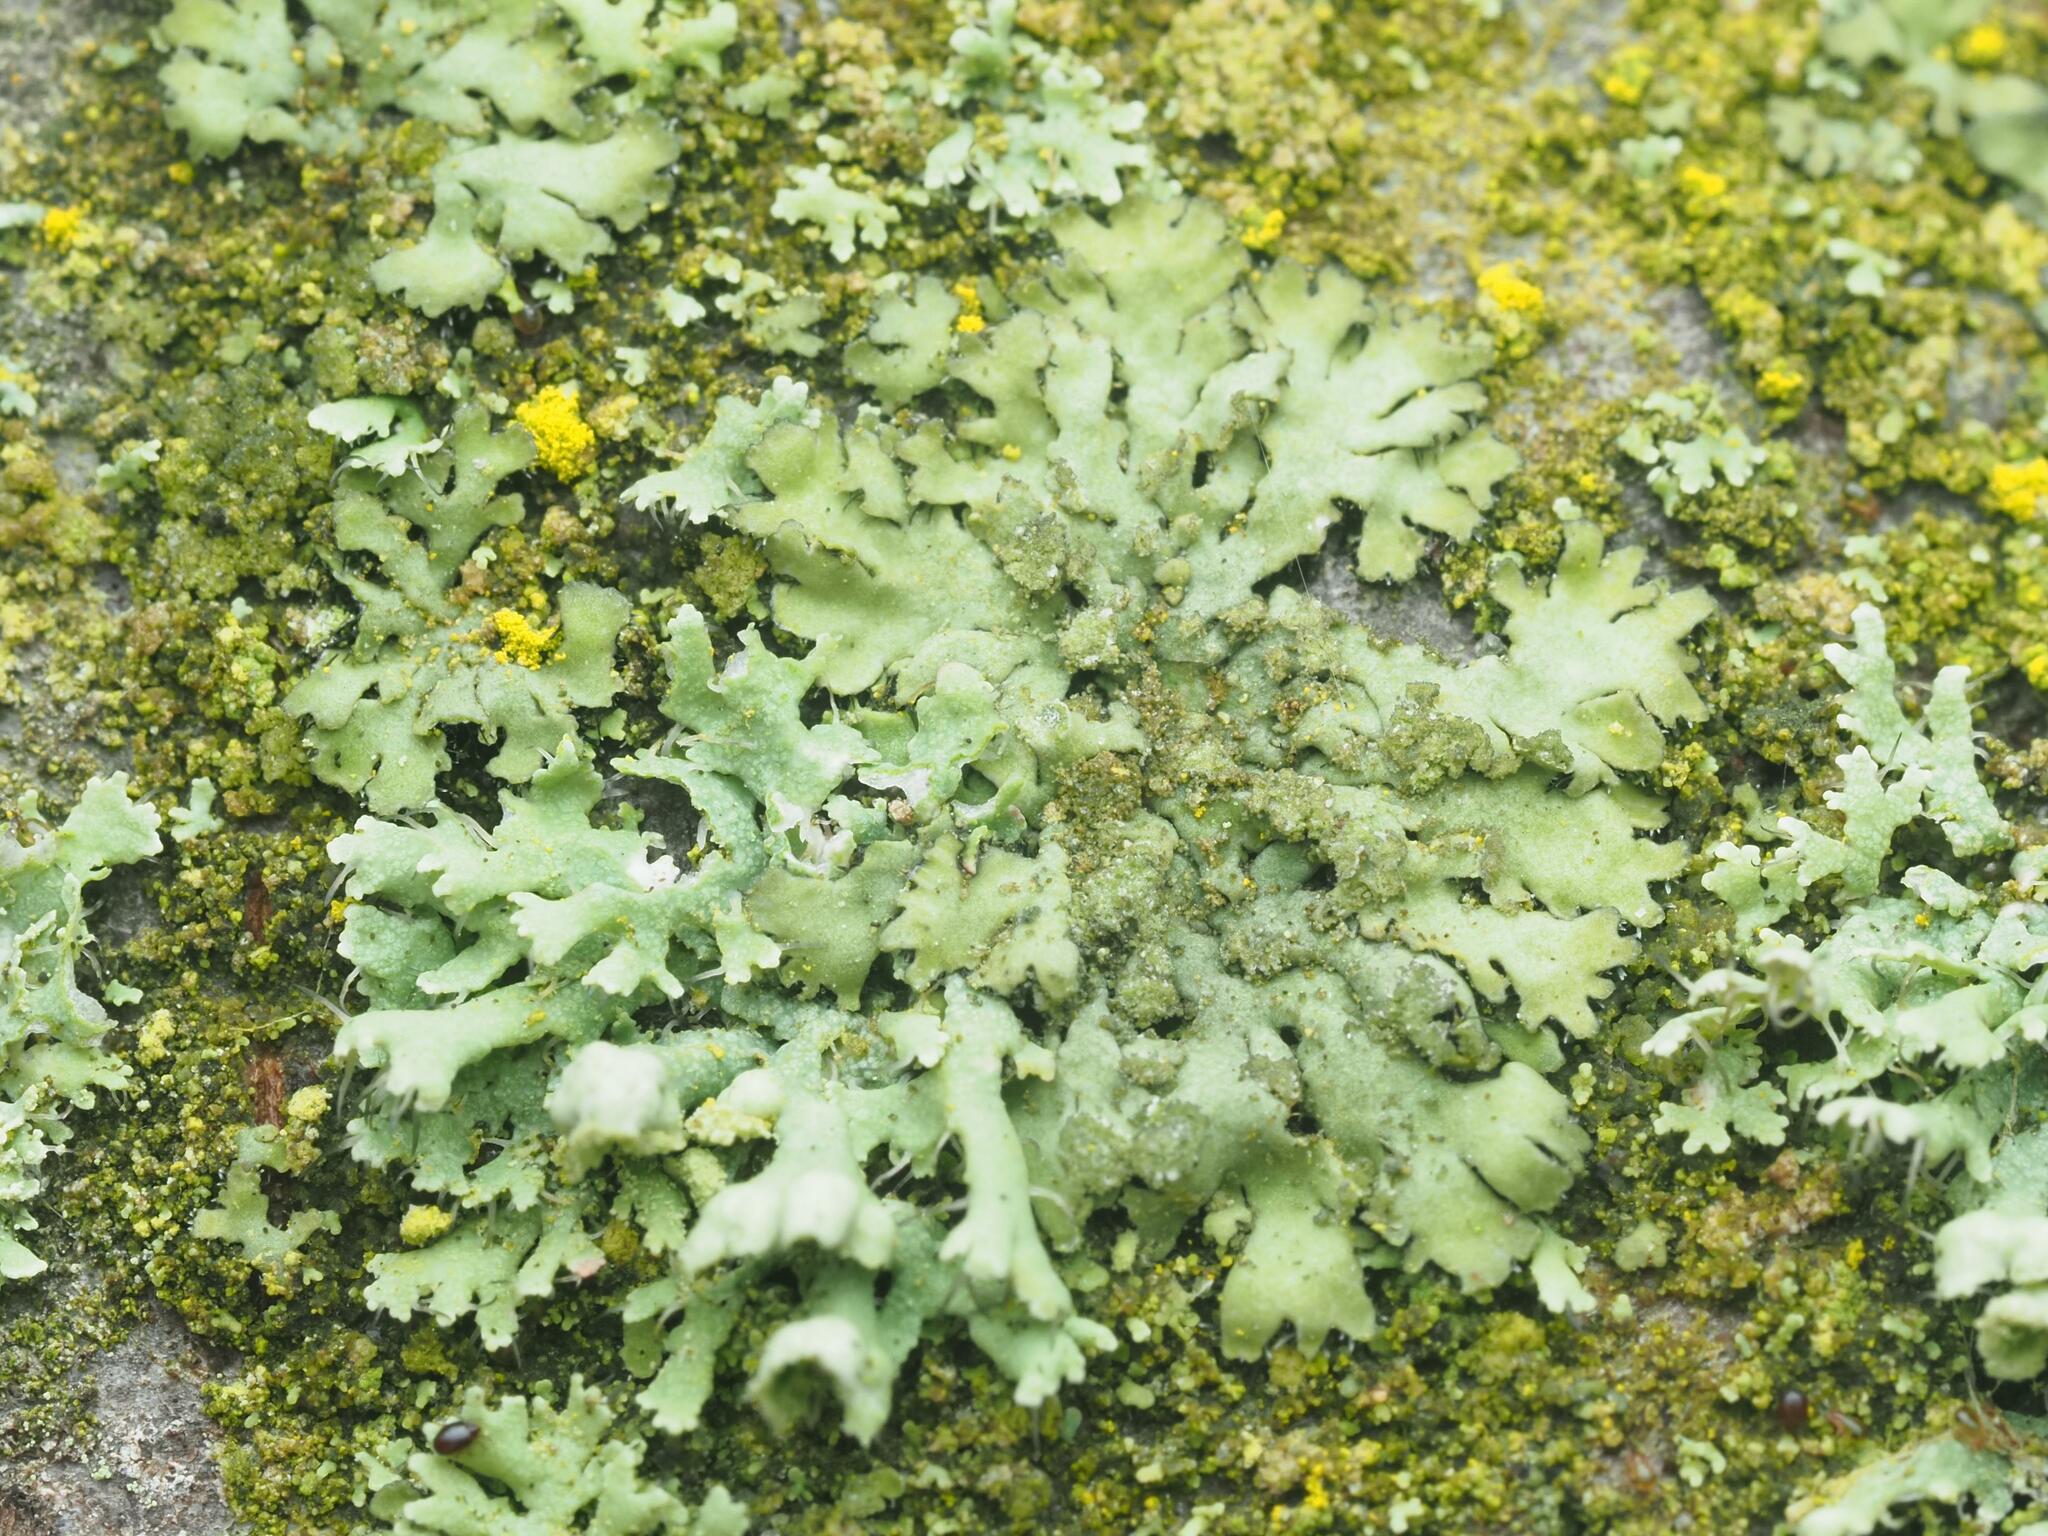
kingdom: Fungi
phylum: Ascomycota
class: Lecanoromycetes
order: Caliciales
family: Physciaceae
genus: Phaeophyscia
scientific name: Phaeophyscia orbicularis
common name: Mealy shadow lichen
